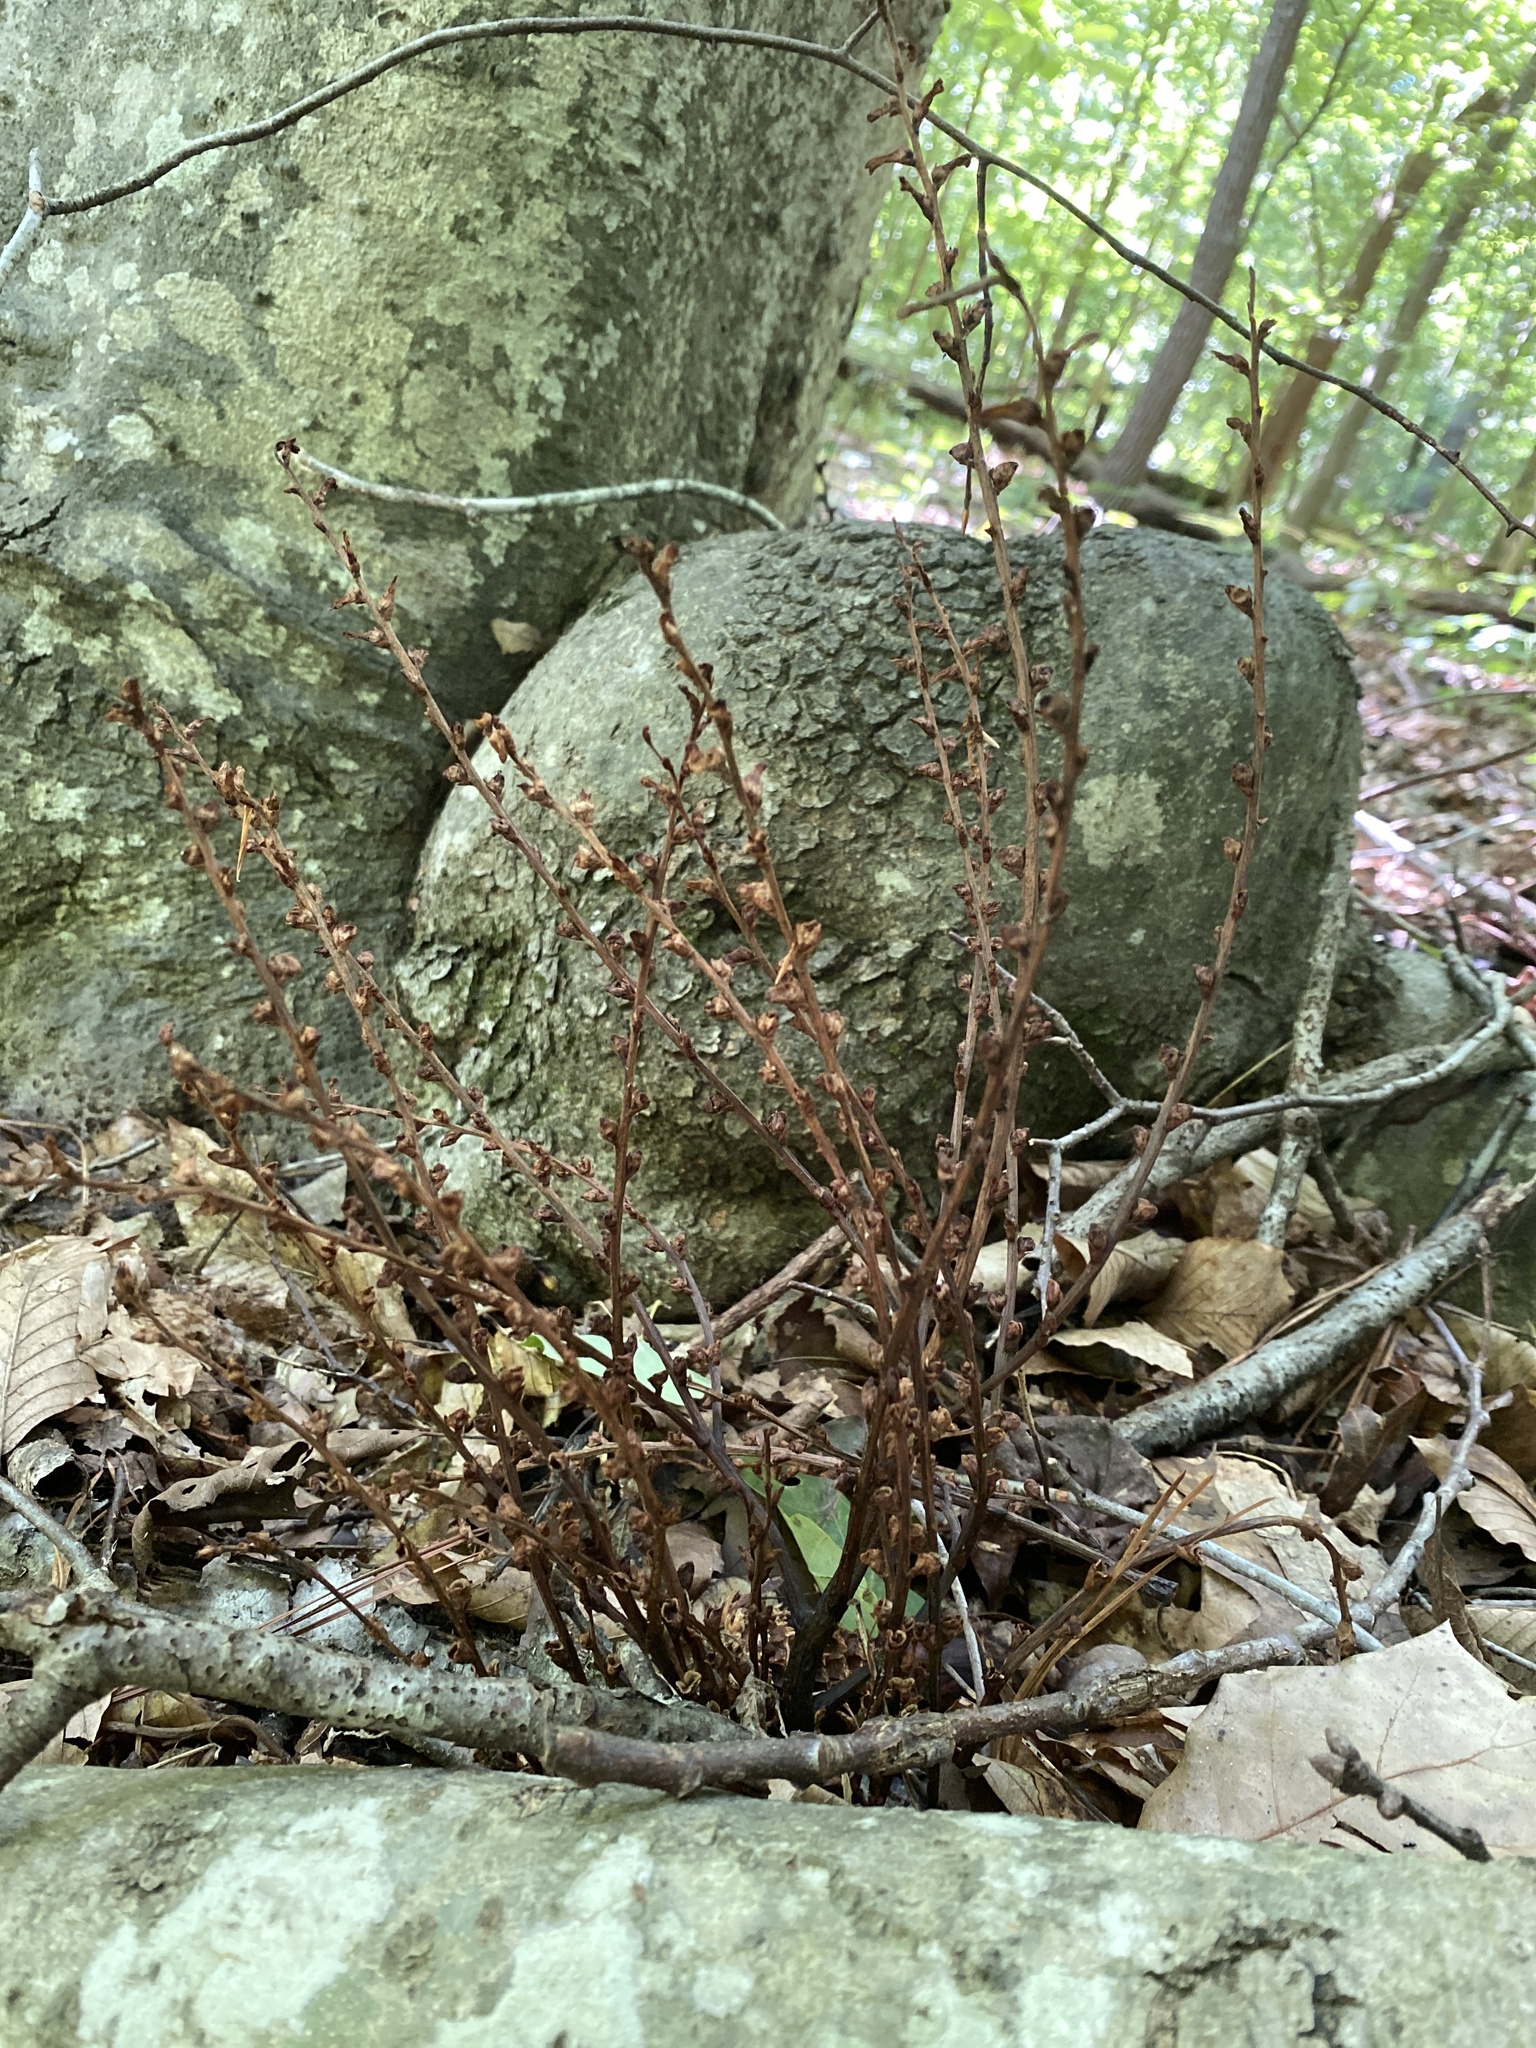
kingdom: Plantae
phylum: Tracheophyta
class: Magnoliopsida
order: Lamiales
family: Orobanchaceae
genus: Epifagus
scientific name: Epifagus virginiana
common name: Beechdrops
